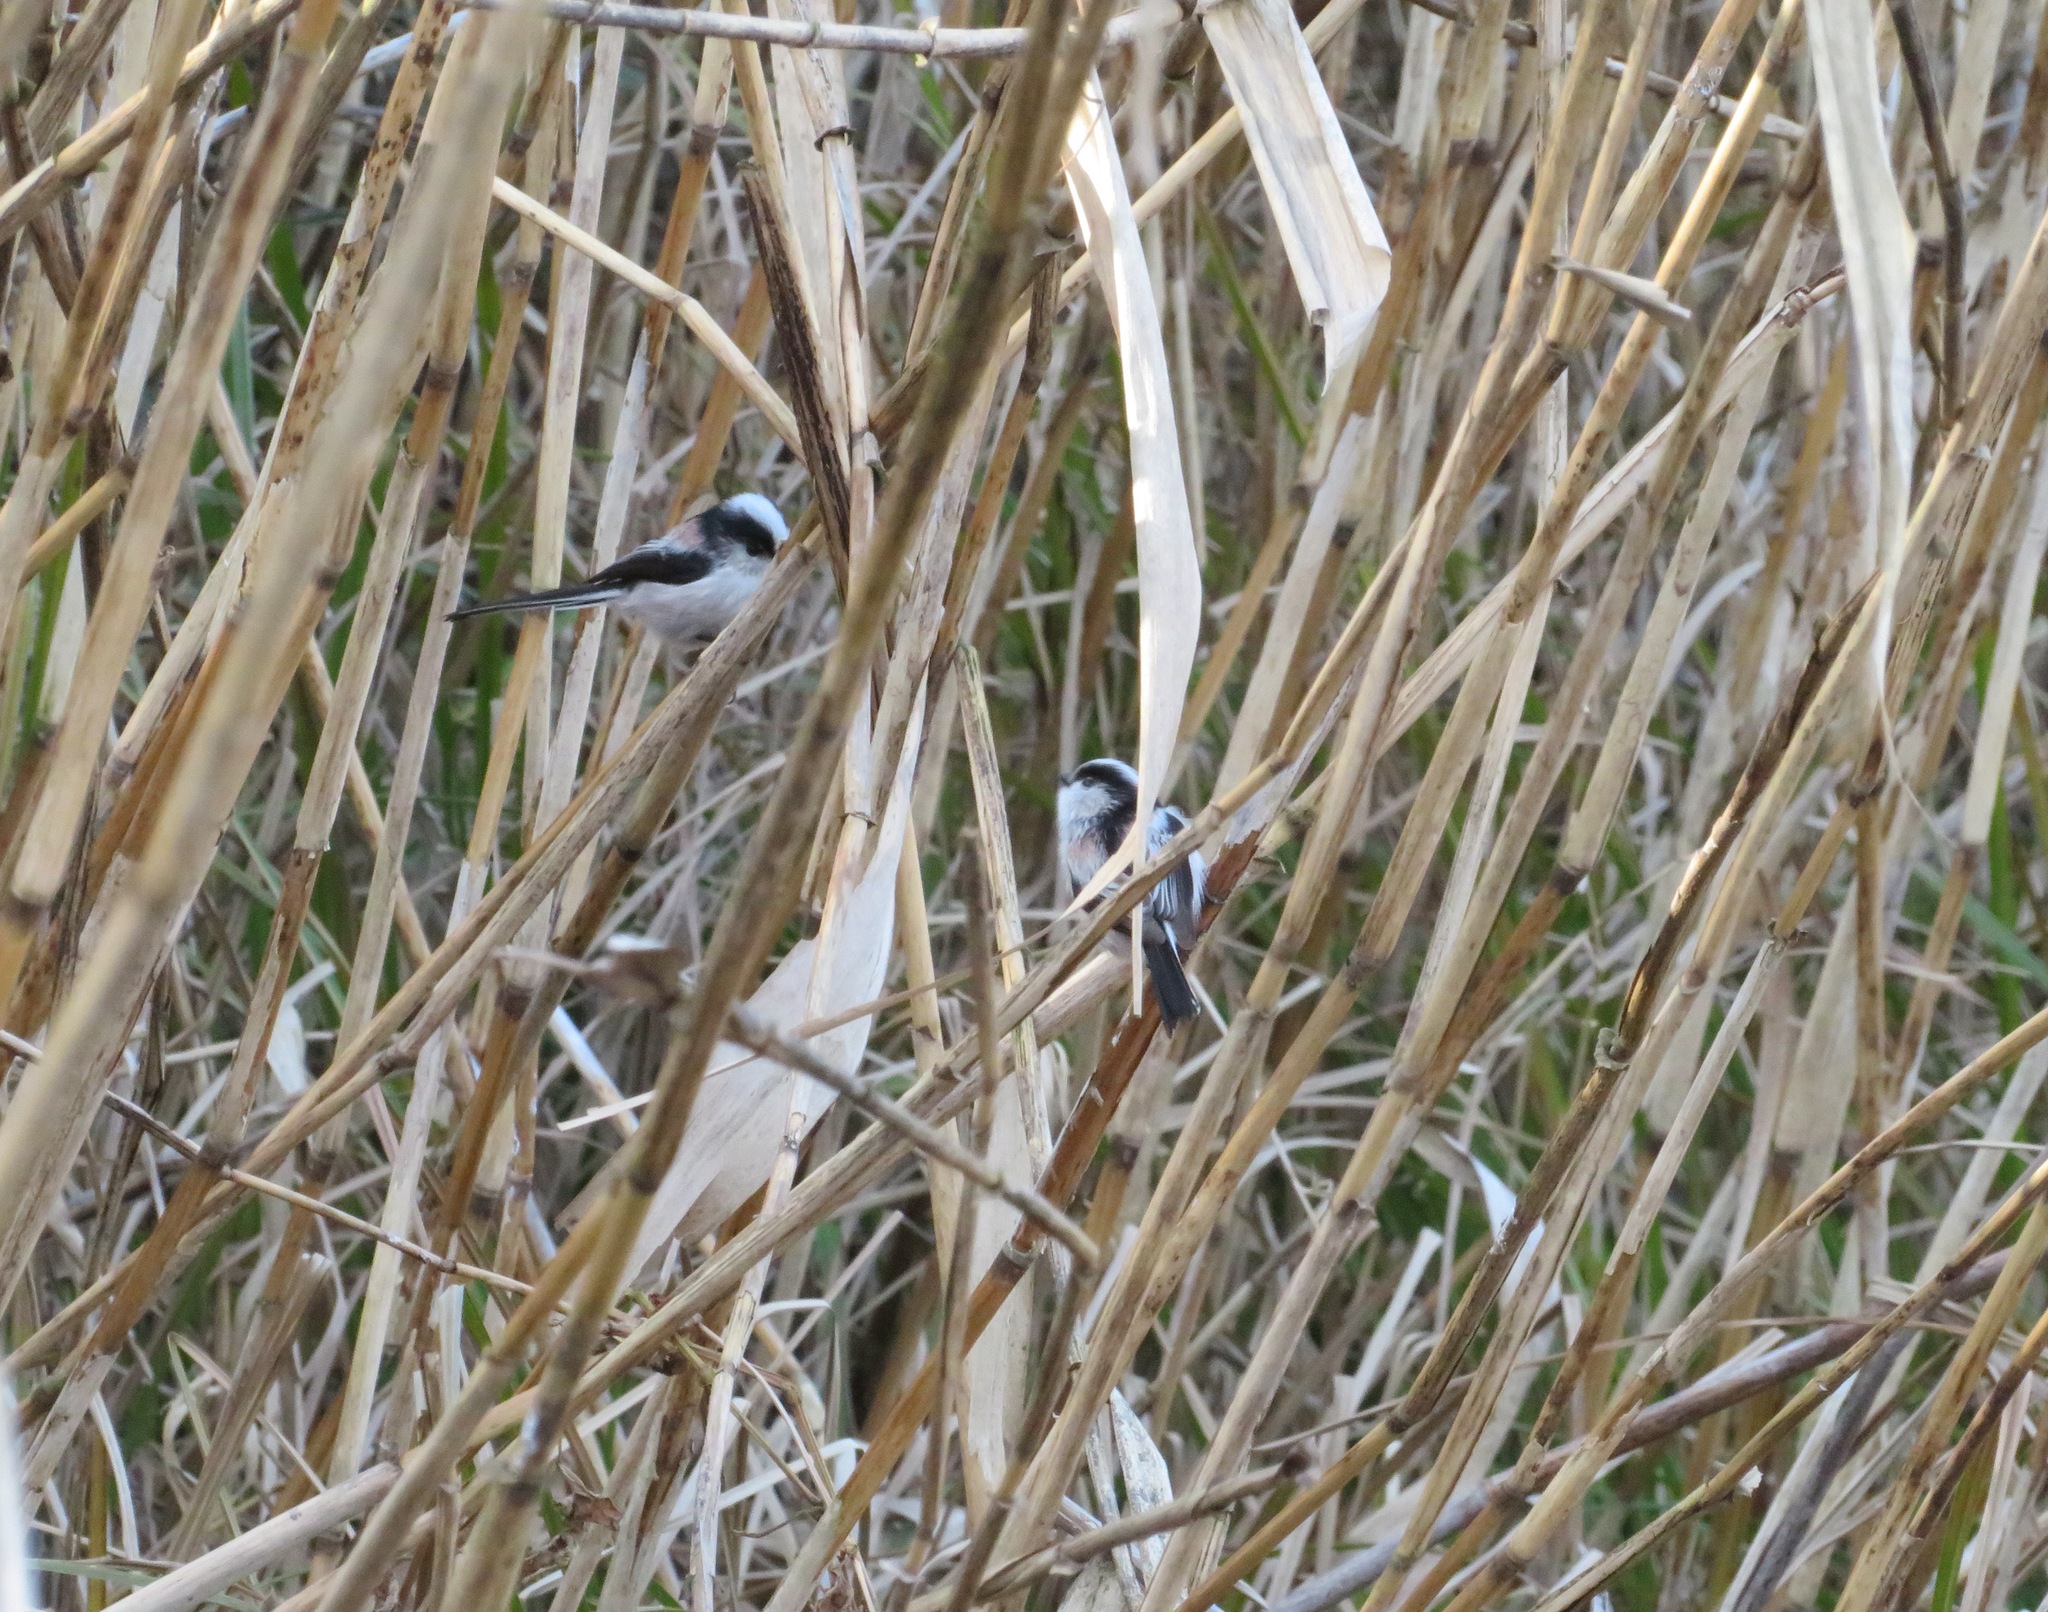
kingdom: Animalia
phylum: Chordata
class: Aves
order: Passeriformes
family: Aegithalidae
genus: Aegithalos
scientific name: Aegithalos caudatus
